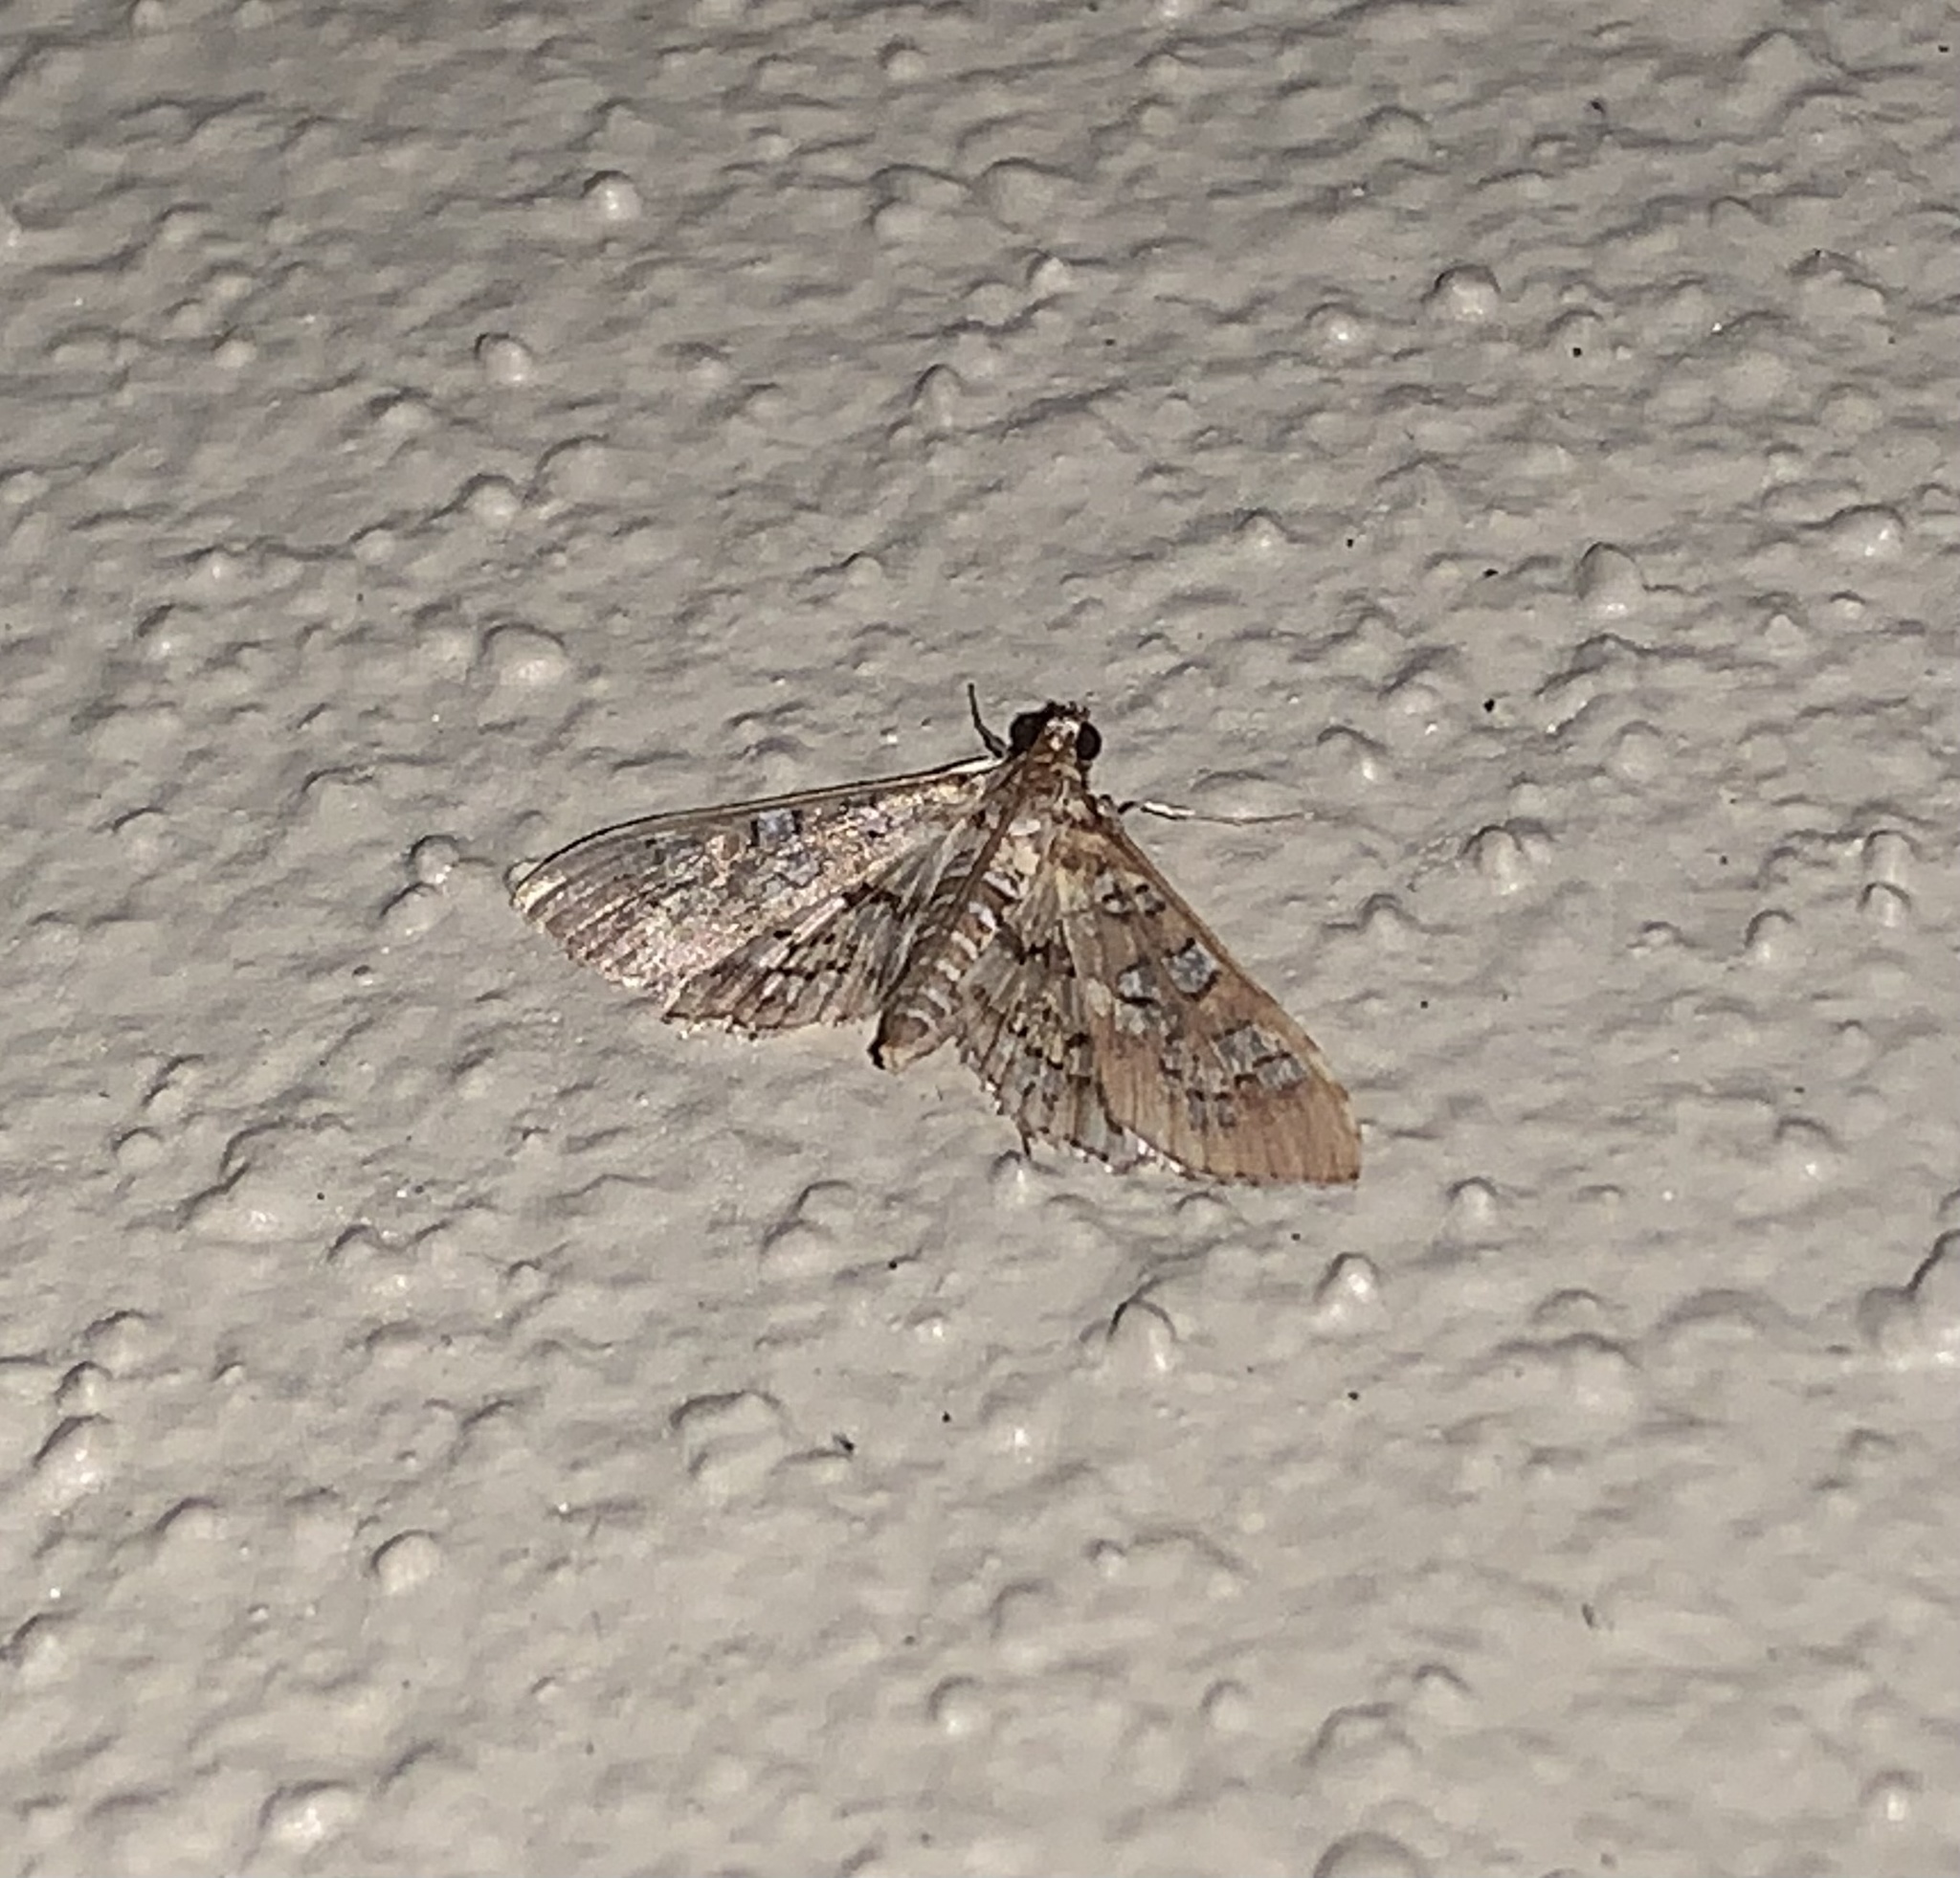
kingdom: Animalia
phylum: Arthropoda
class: Insecta
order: Lepidoptera
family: Crambidae
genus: Samea
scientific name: Samea ecclesialis
